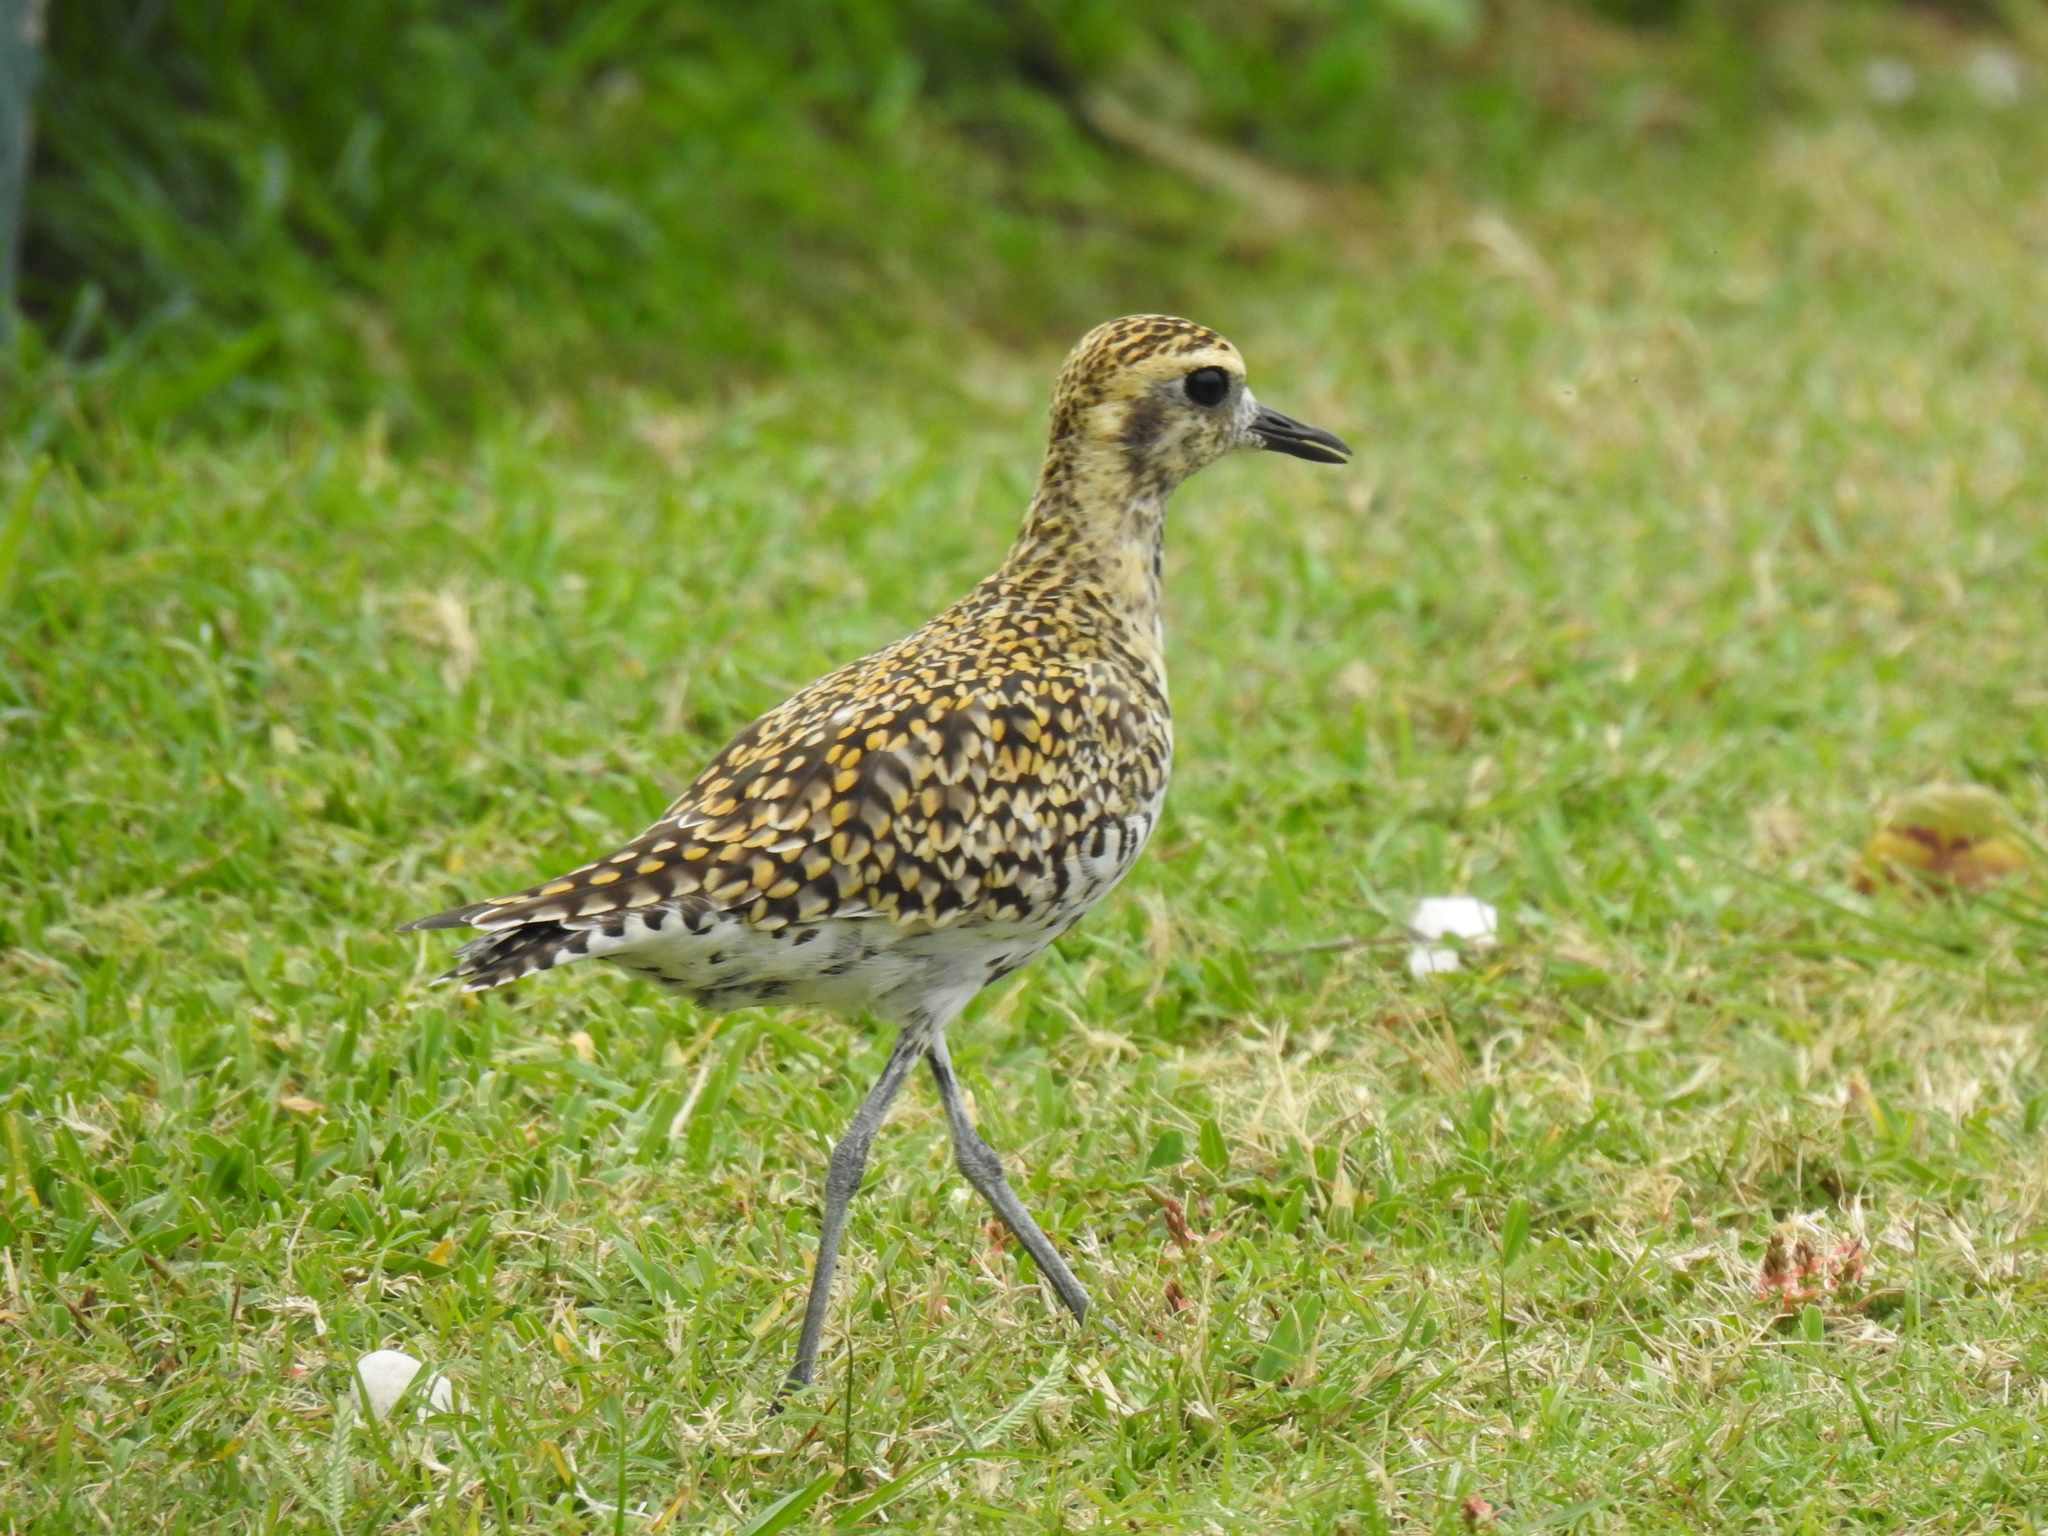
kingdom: Animalia
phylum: Chordata
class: Aves
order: Charadriiformes
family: Charadriidae
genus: Pluvialis
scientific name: Pluvialis fulva
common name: Pacific golden plover
